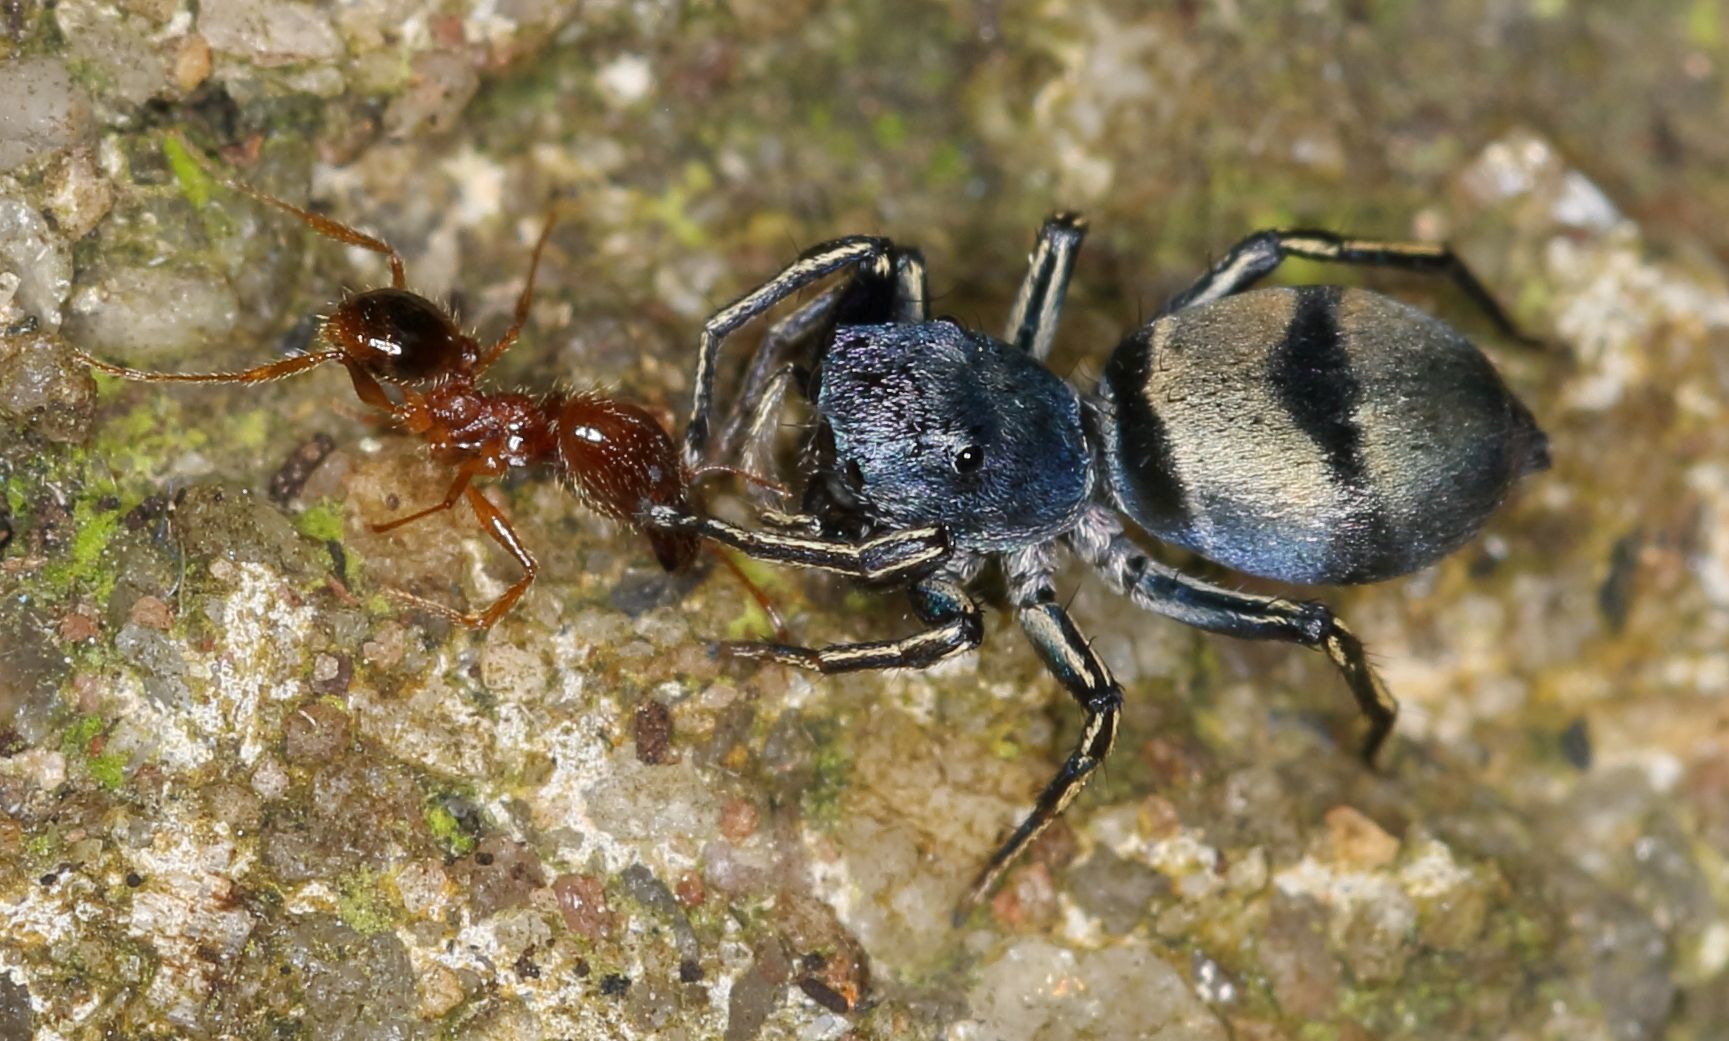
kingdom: Animalia
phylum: Arthropoda
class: Insecta
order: Hymenoptera
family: Formicidae
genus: Pheidole
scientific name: Pheidole megacephala
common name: Bigheaded ant
